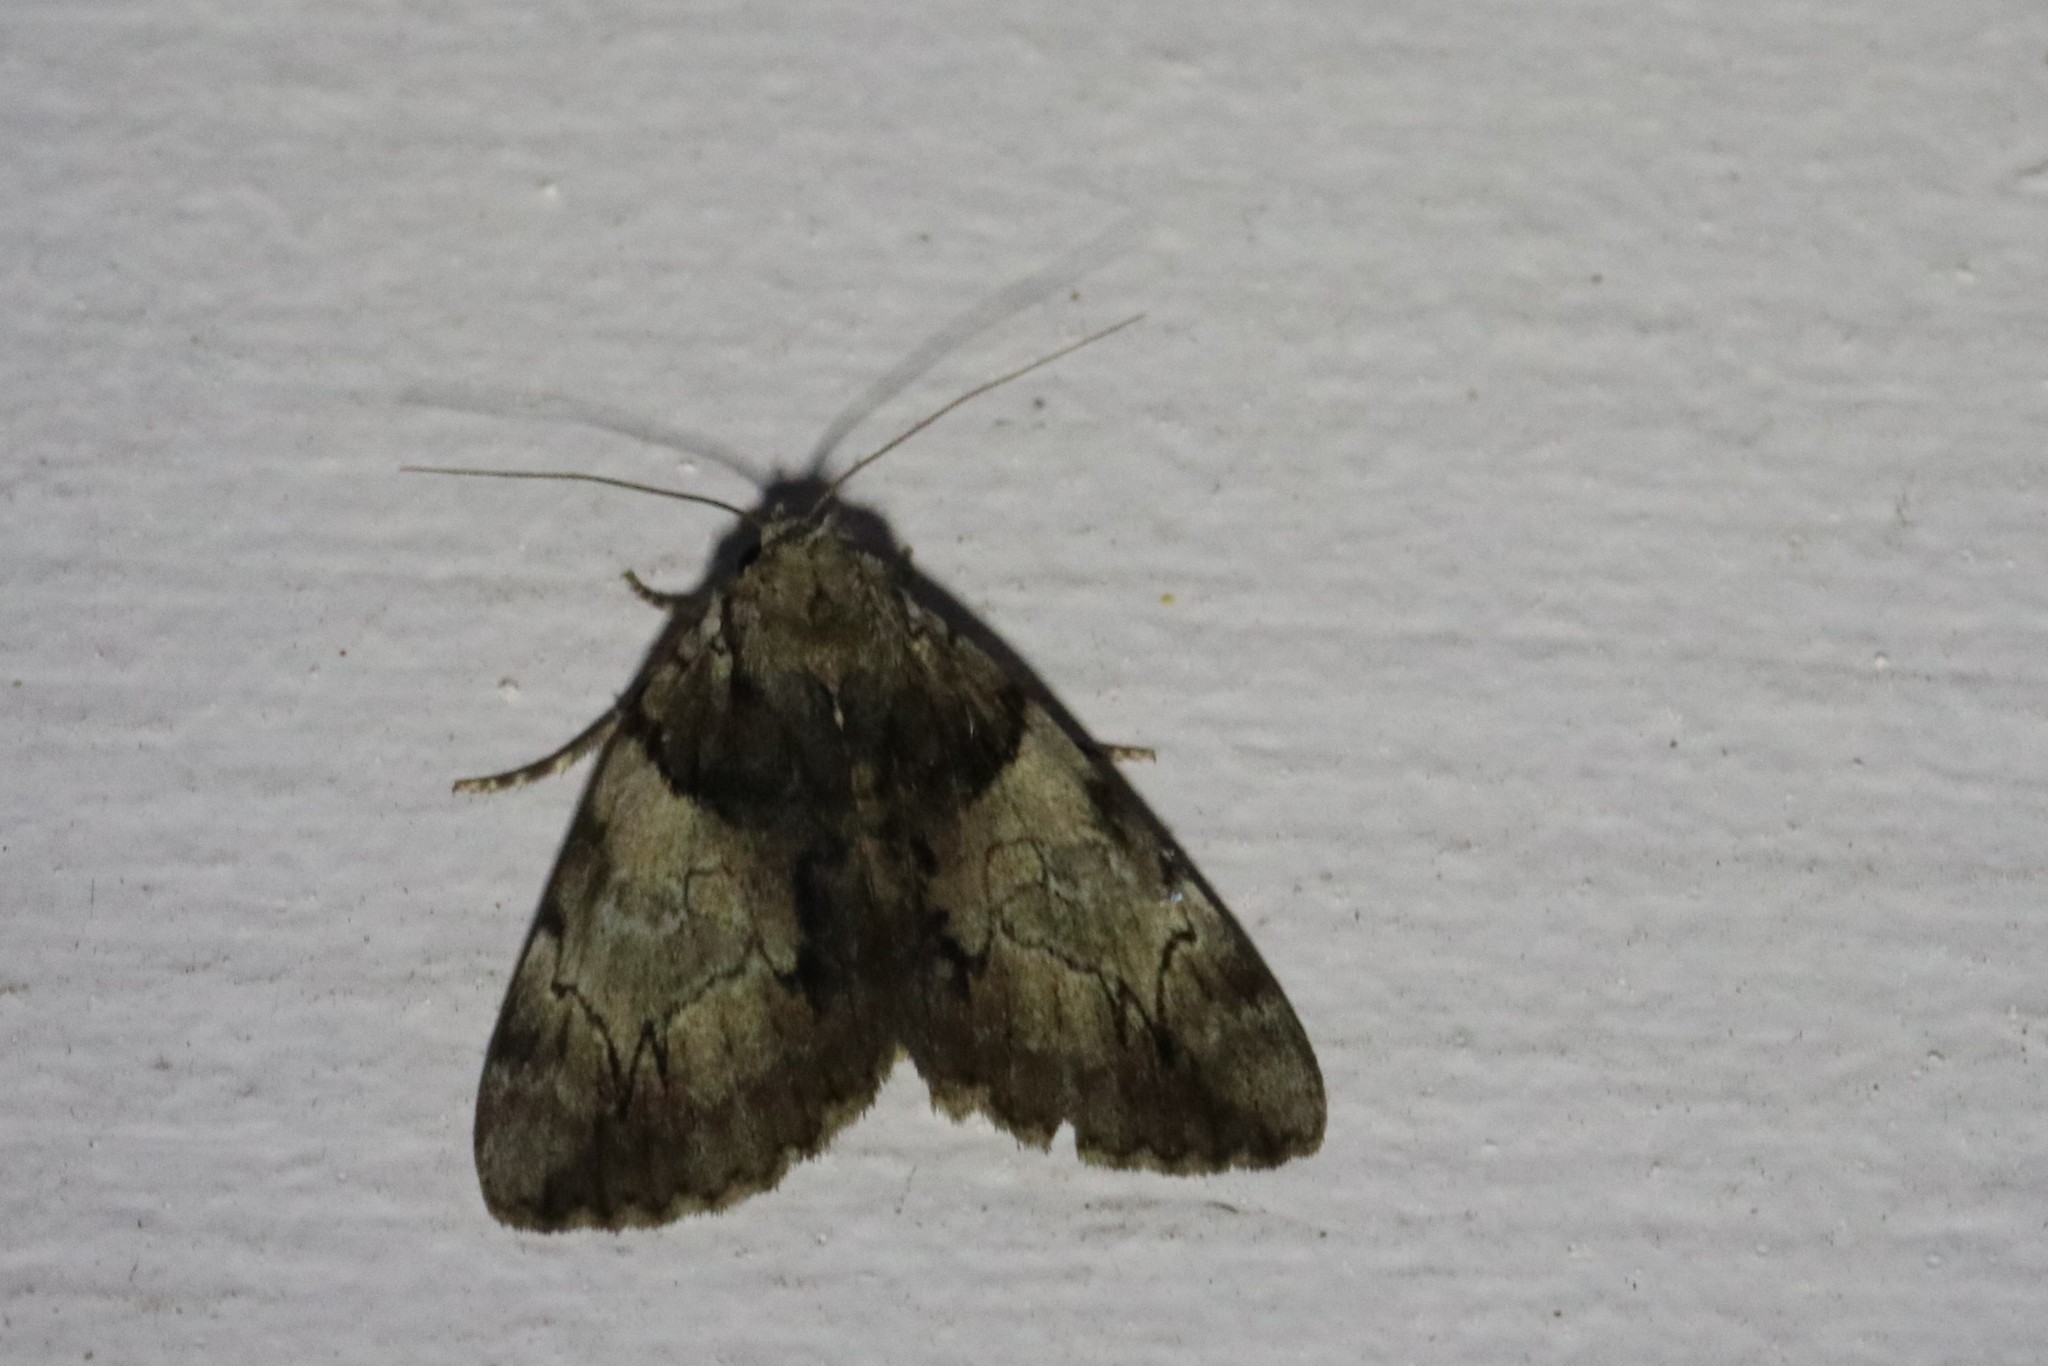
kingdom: Animalia
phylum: Arthropoda
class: Insecta
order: Lepidoptera
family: Erebidae
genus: Catocala
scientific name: Catocala crataegi
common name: Hawthorn underwing moth
